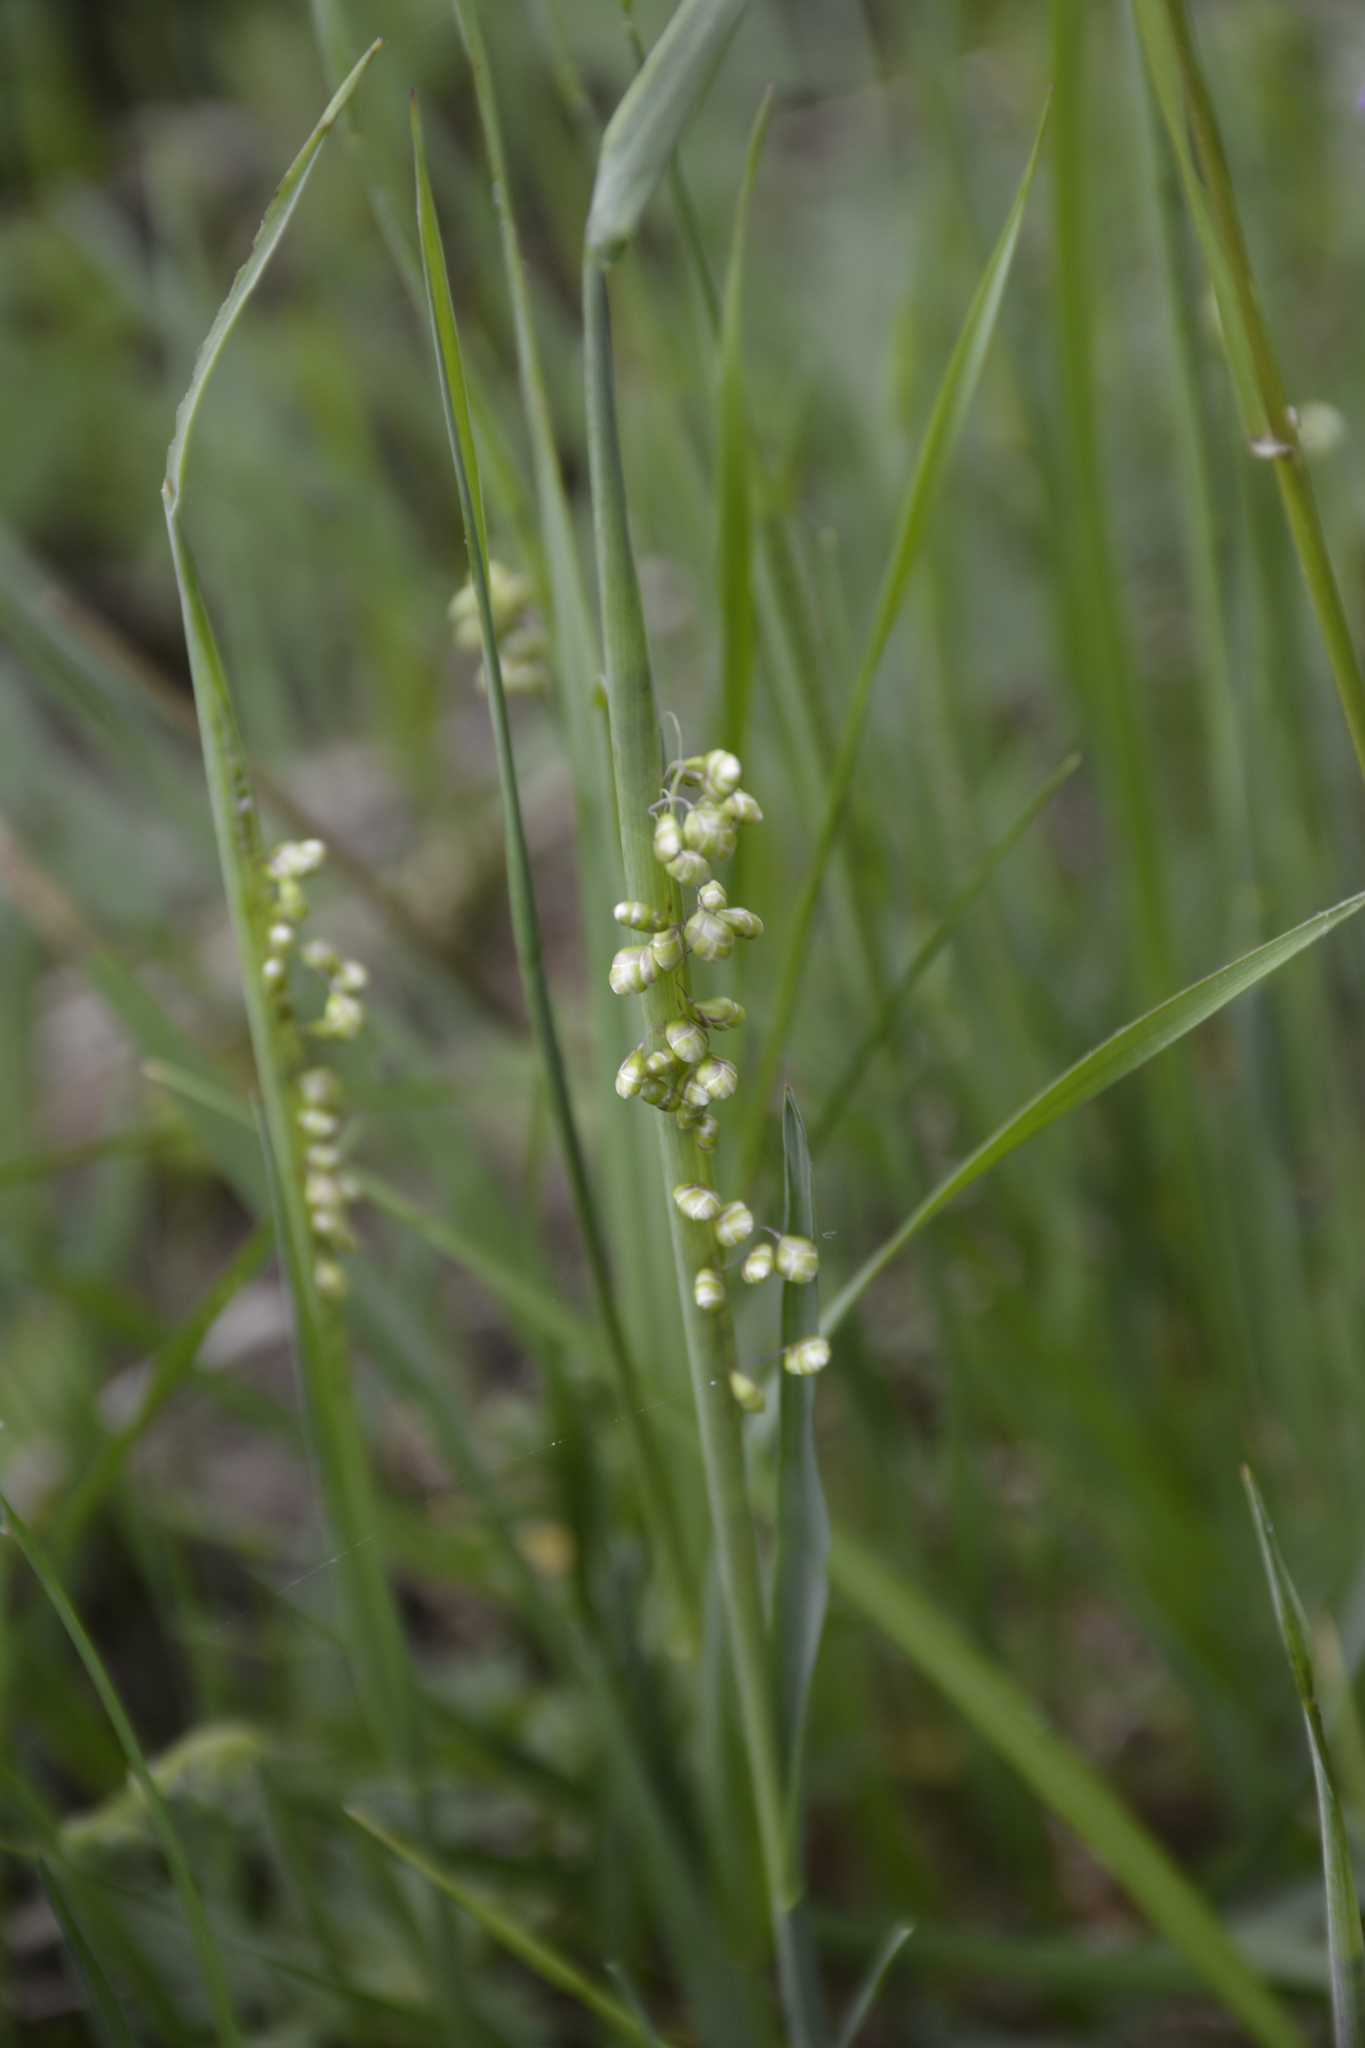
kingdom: Plantae
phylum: Tracheophyta
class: Liliopsida
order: Poales
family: Poaceae
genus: Briza
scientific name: Briza media
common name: Quaking grass
